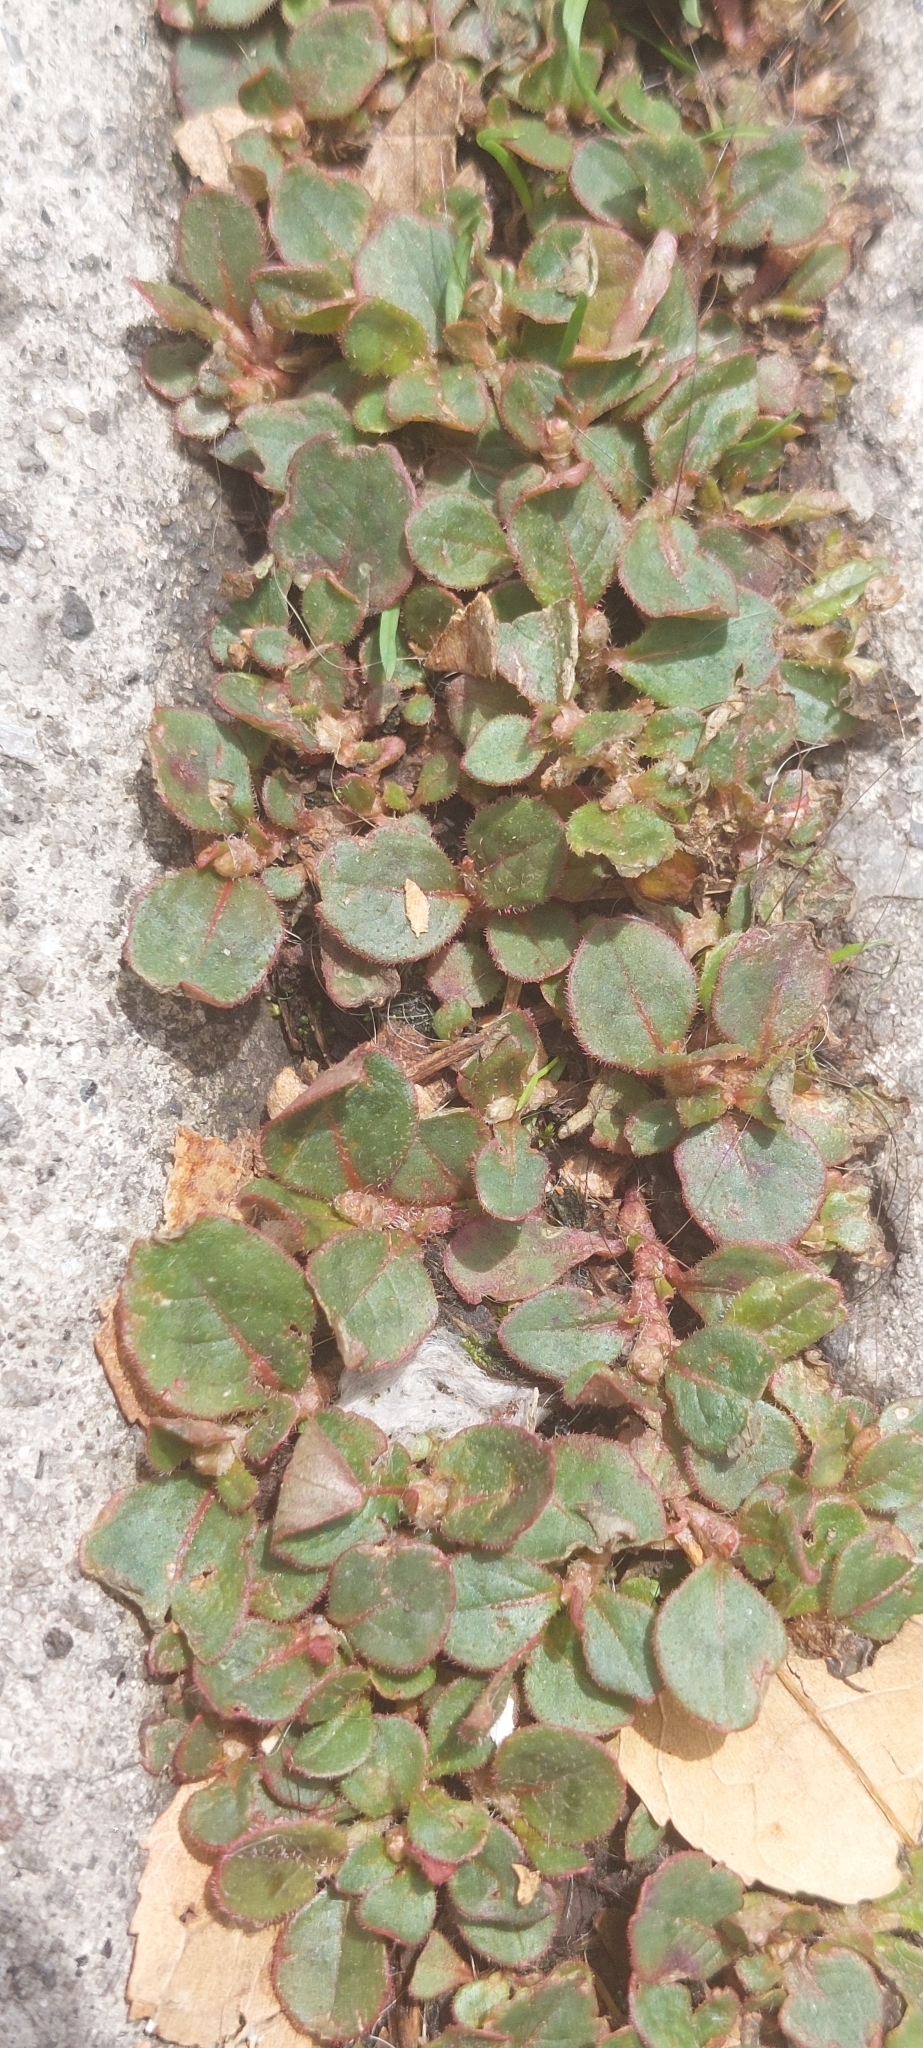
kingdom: Plantae
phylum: Tracheophyta
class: Magnoliopsida
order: Caryophyllales
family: Polygonaceae
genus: Persicaria
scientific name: Persicaria capitata
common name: Pinkhead smartweed
